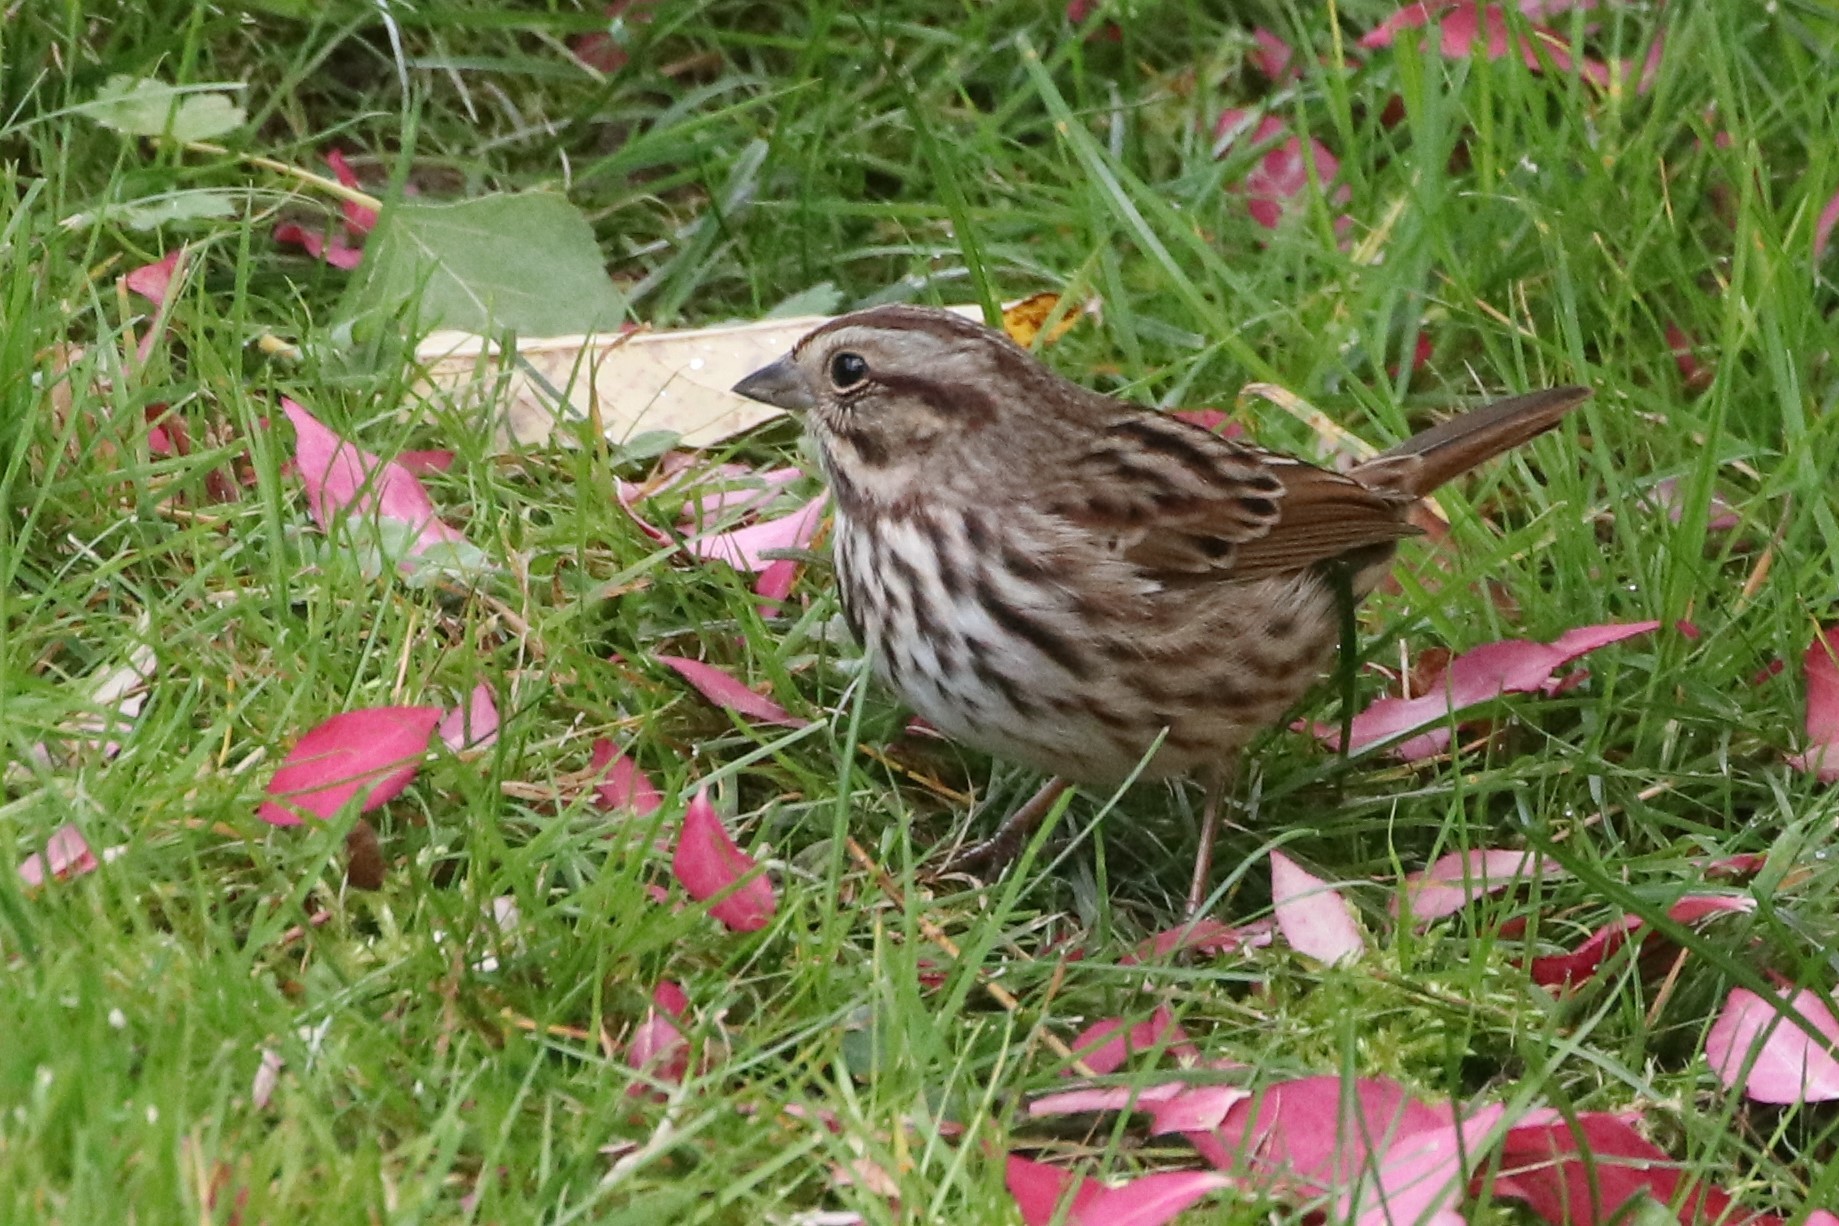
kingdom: Animalia
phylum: Chordata
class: Aves
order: Passeriformes
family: Passerellidae
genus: Melospiza
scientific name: Melospiza melodia
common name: Song sparrow
